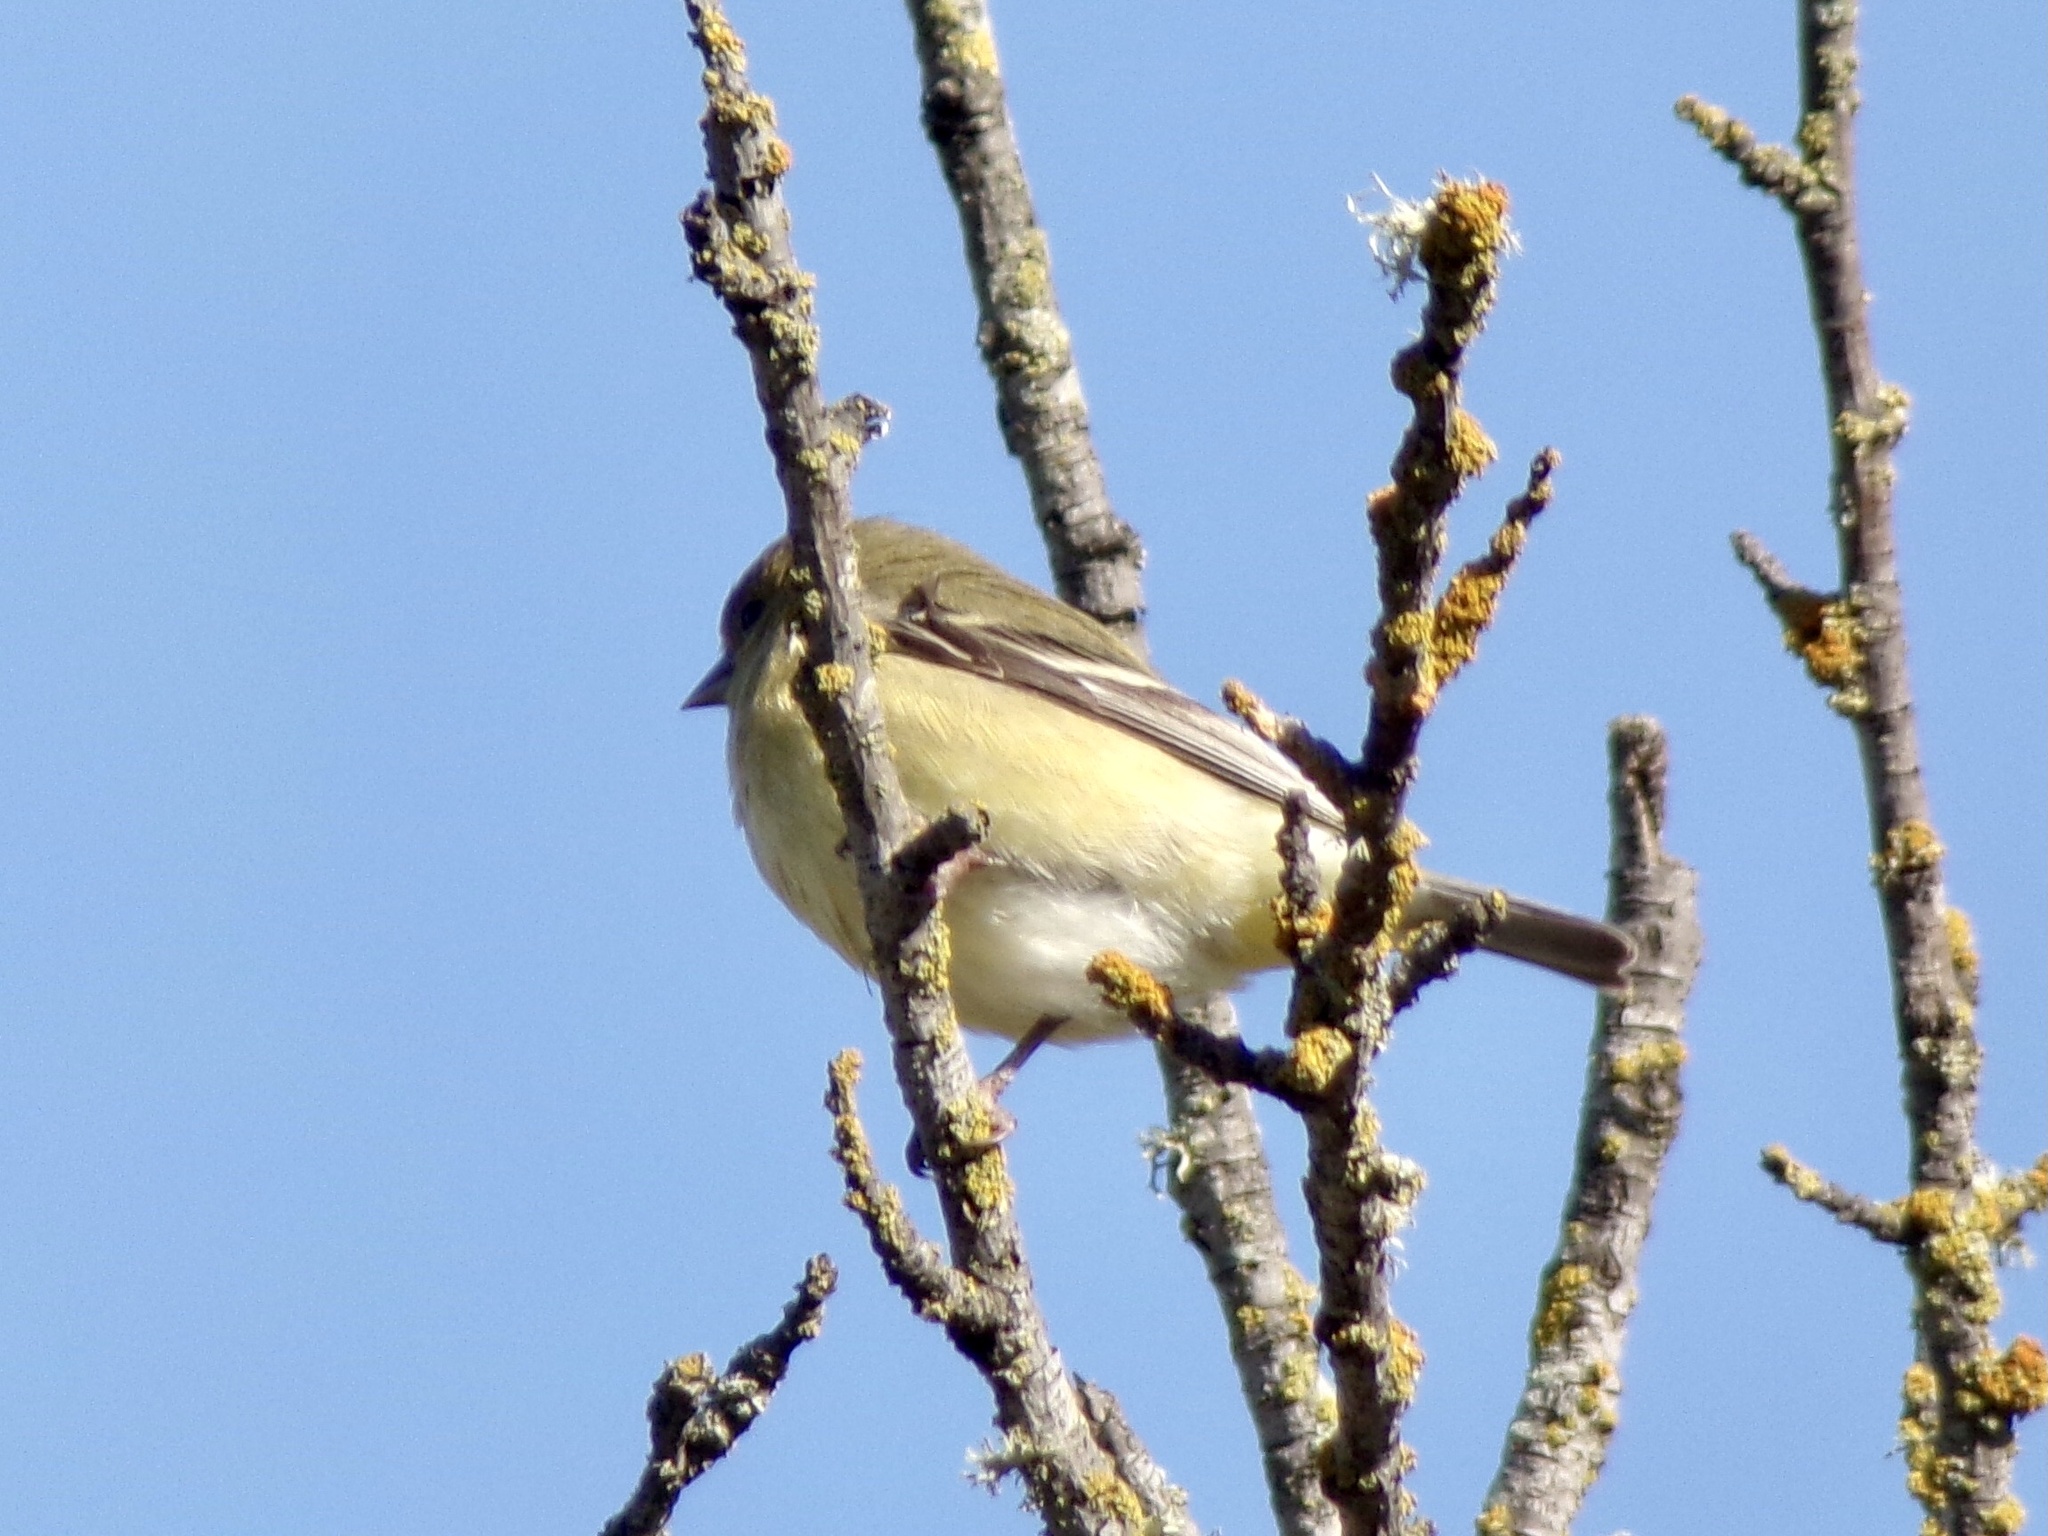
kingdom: Animalia
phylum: Chordata
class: Aves
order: Passeriformes
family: Fringillidae
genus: Spinus
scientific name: Spinus psaltria
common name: Lesser goldfinch
